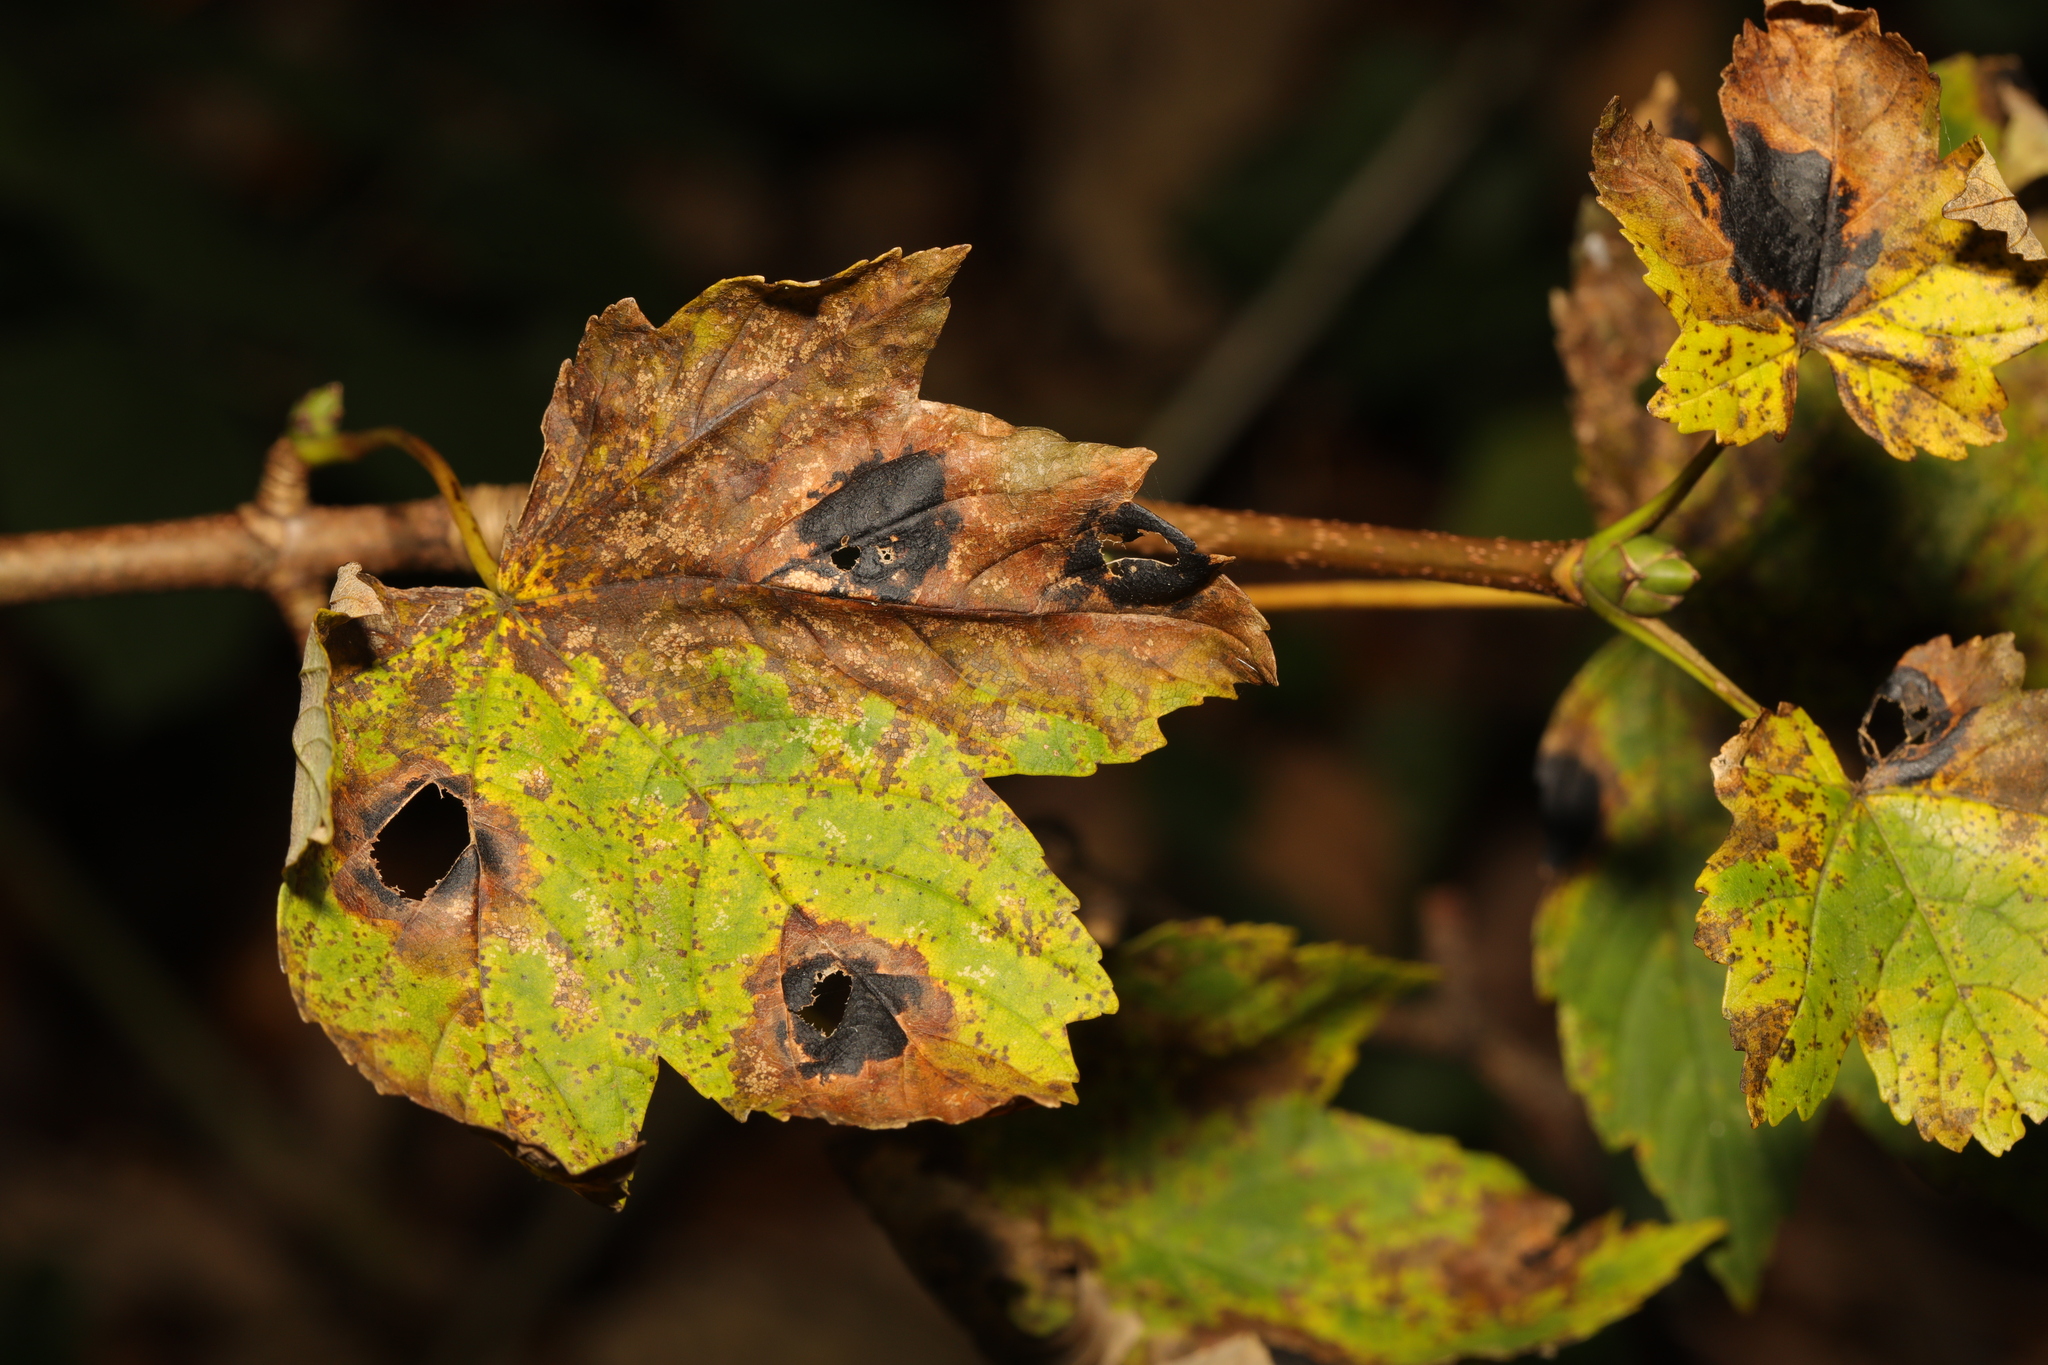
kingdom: Plantae
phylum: Tracheophyta
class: Magnoliopsida
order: Sapindales
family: Sapindaceae
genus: Acer
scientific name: Acer pseudoplatanus
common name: Sycamore
